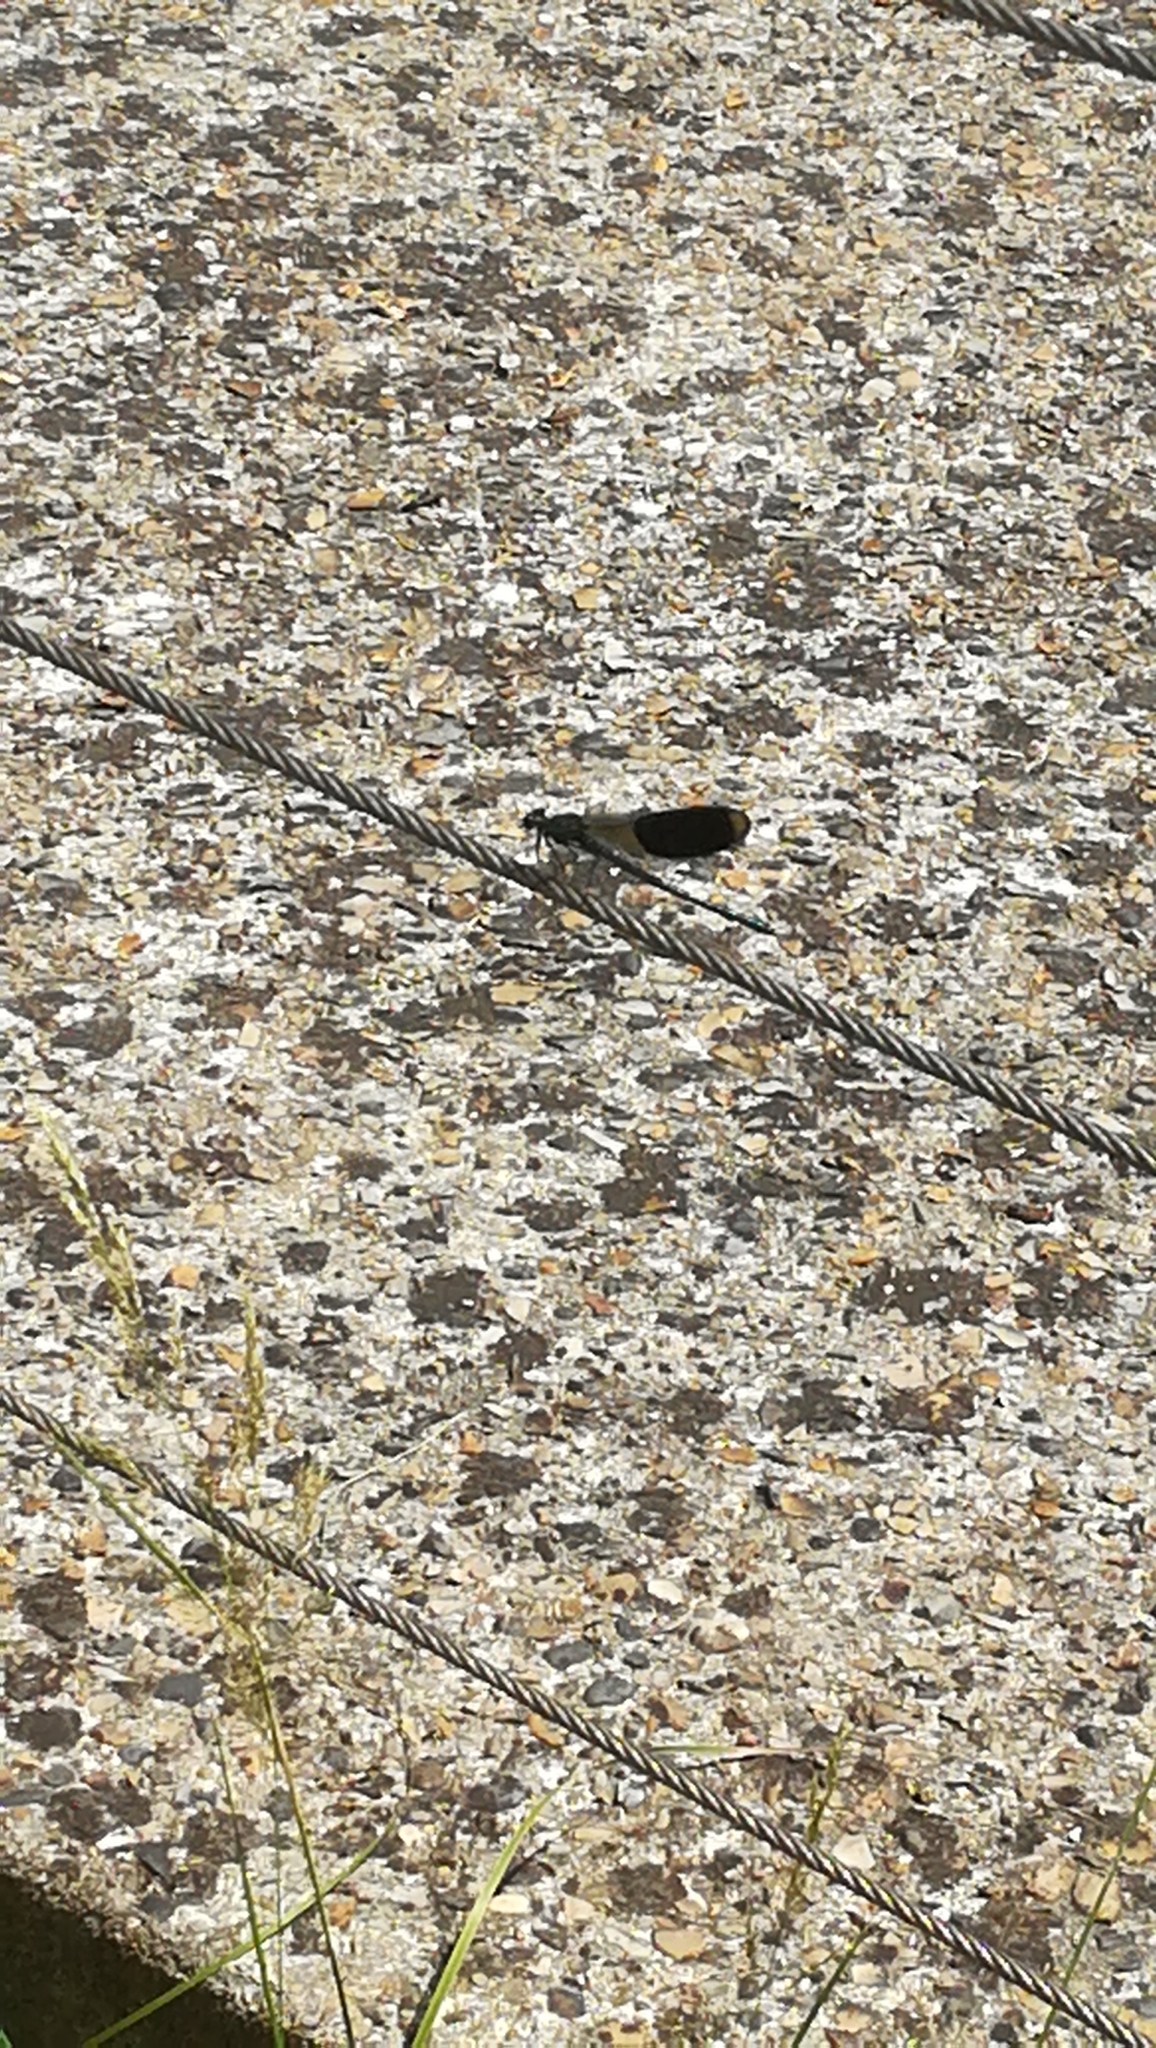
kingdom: Animalia
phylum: Arthropoda
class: Insecta
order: Odonata
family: Calopterygidae
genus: Calopteryx
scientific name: Calopteryx splendens
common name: Banded demoiselle
